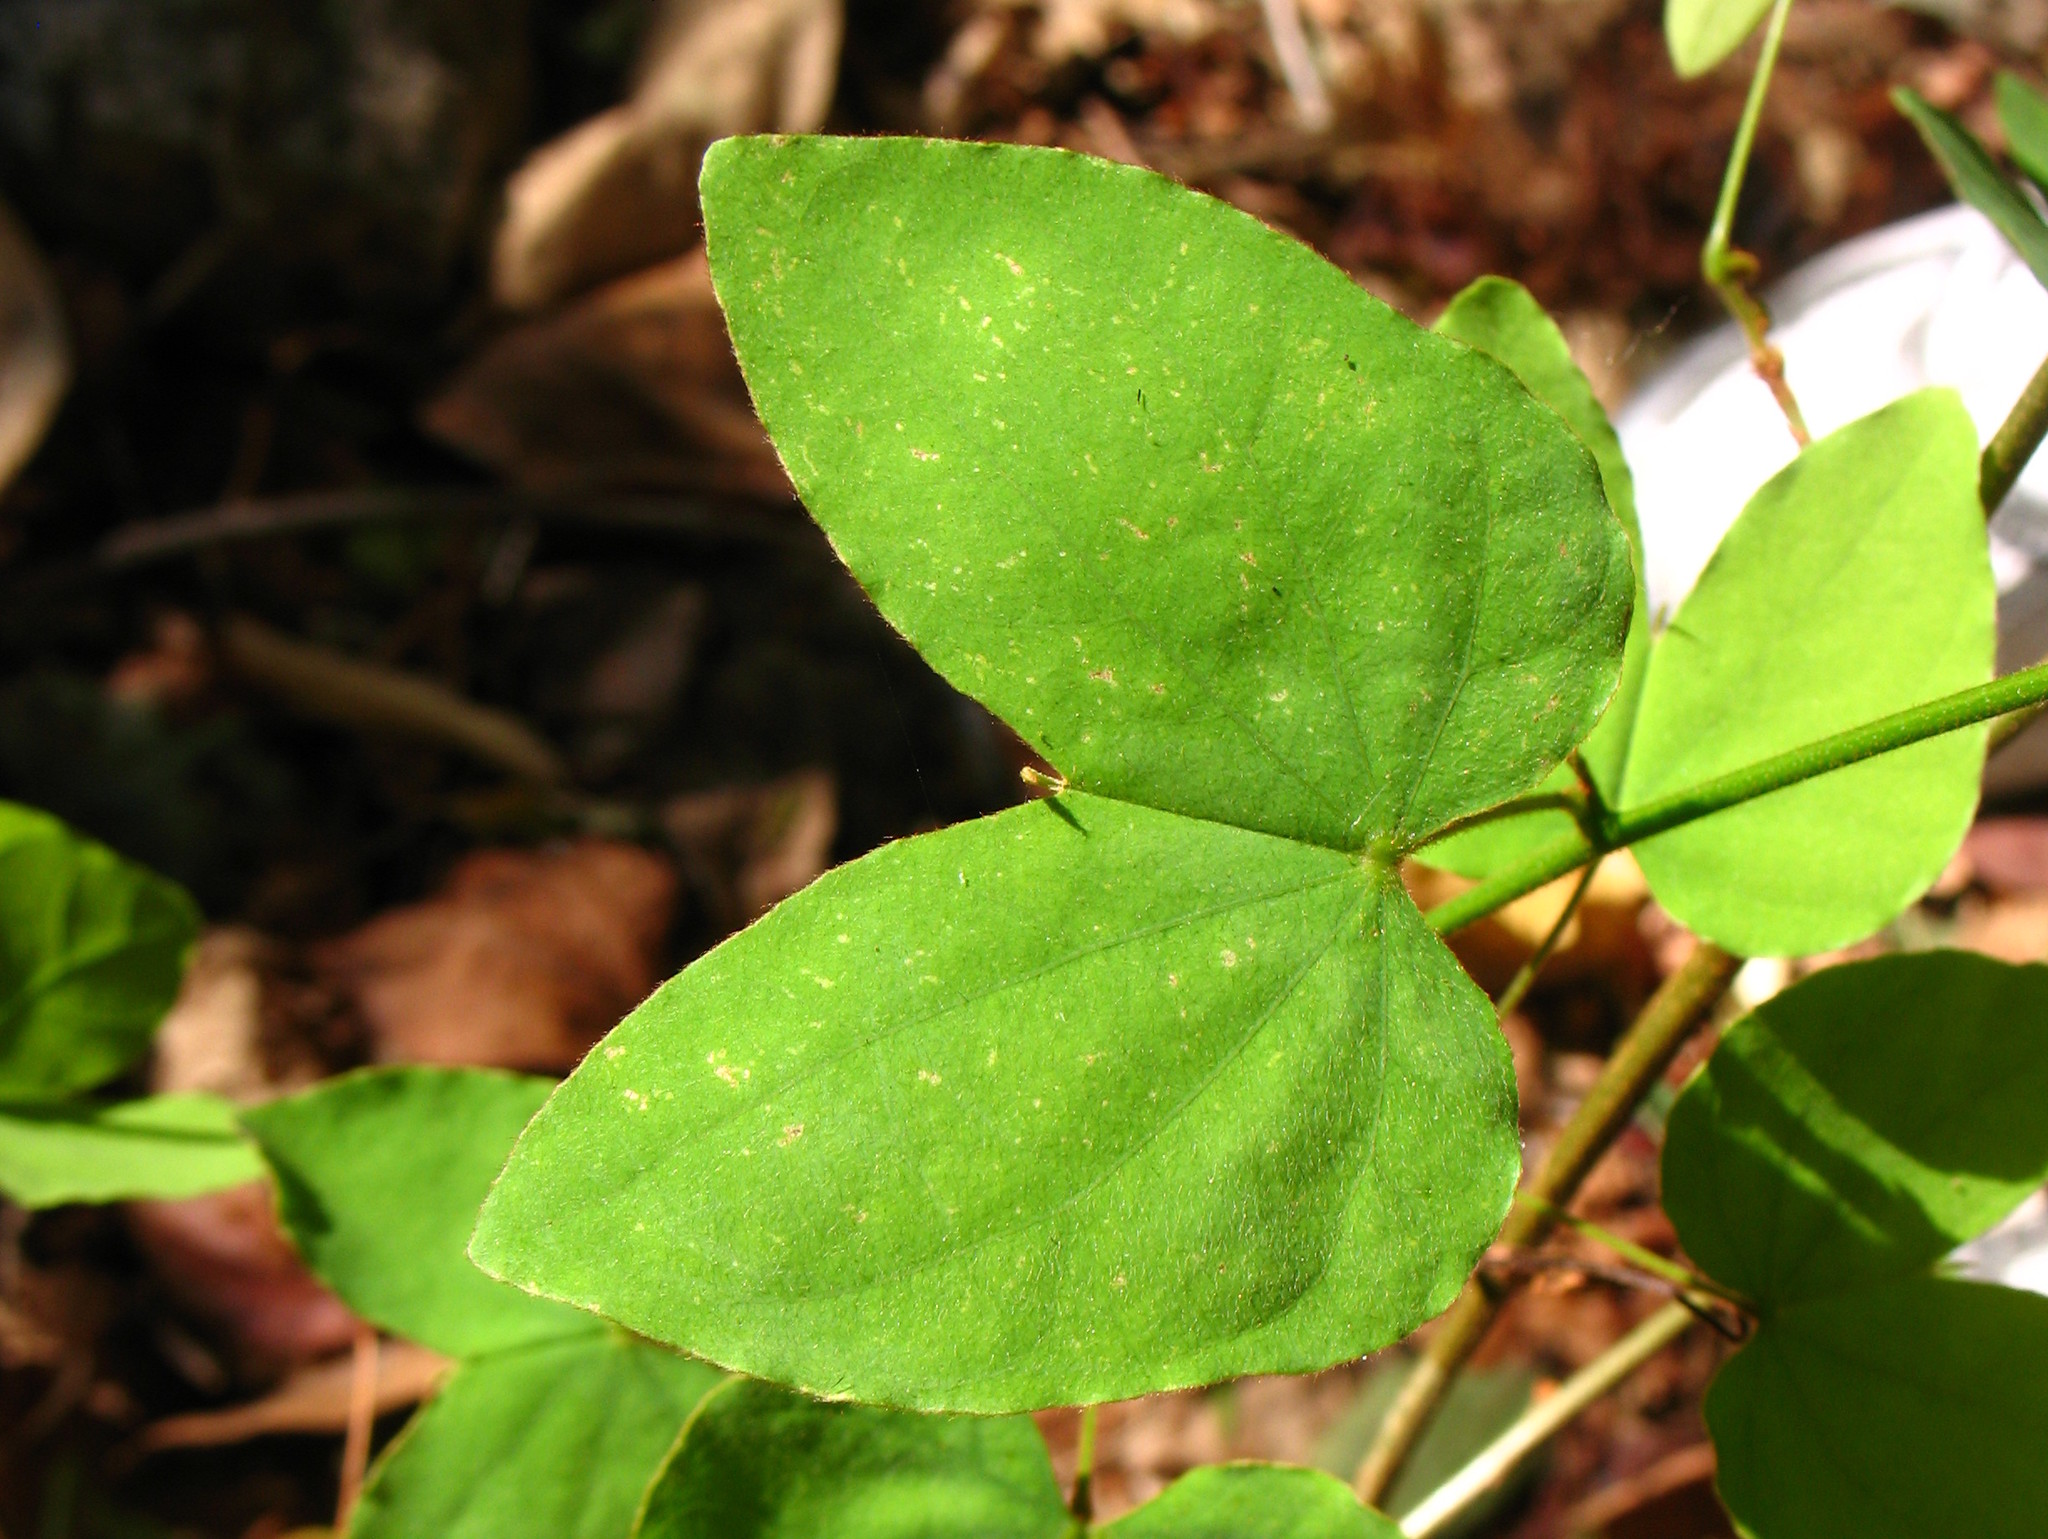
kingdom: Plantae
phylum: Tracheophyta
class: Magnoliopsida
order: Fabales
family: Fabaceae
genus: Schnella
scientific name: Schnella glabra
